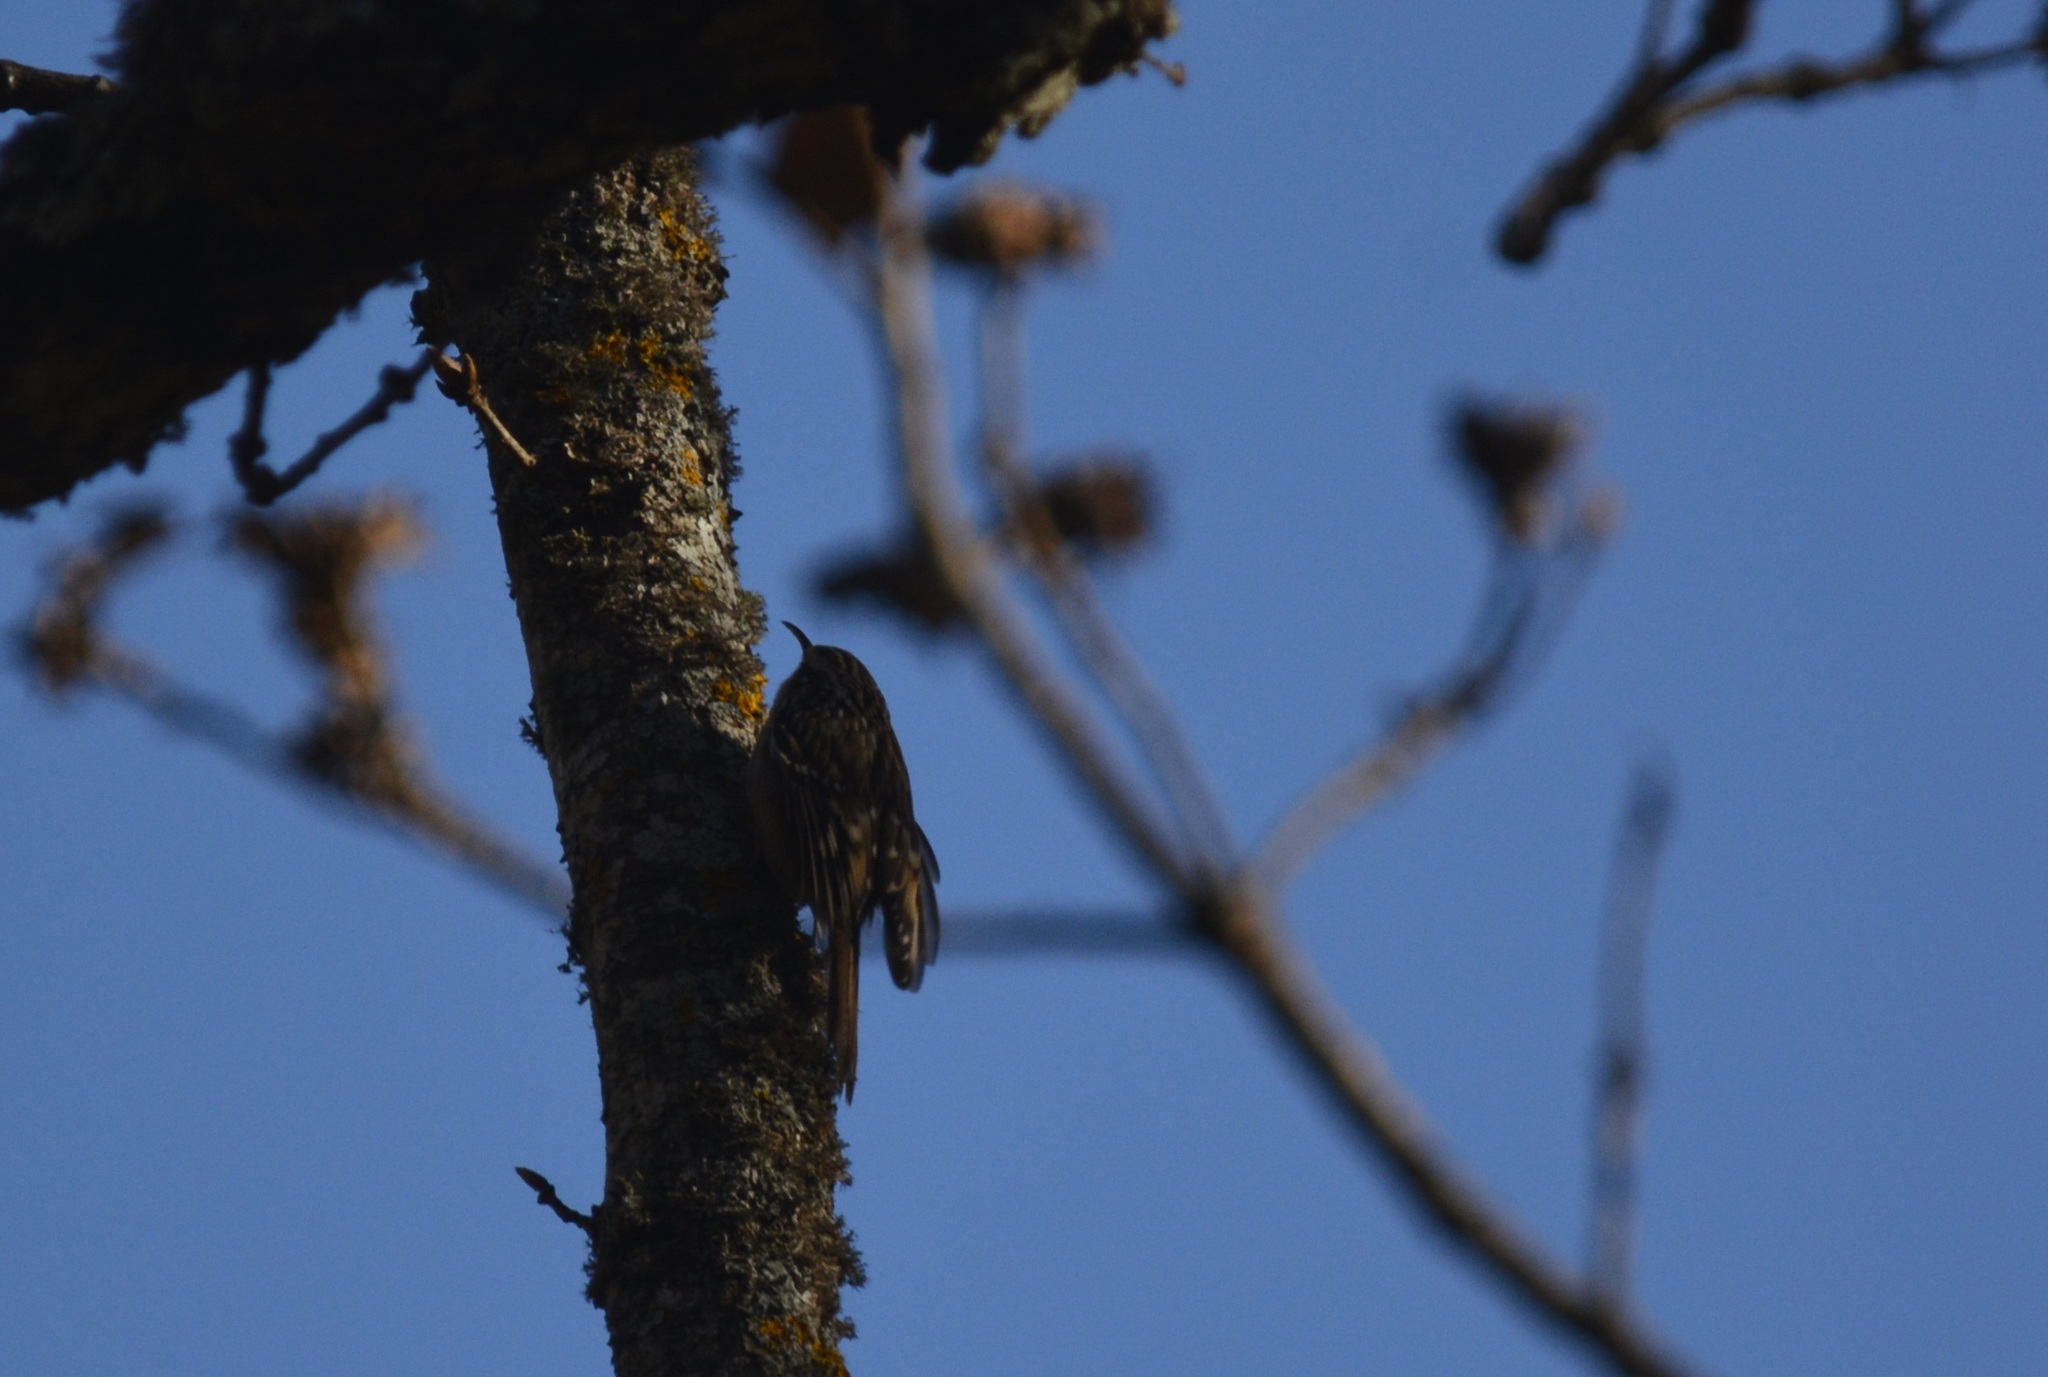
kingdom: Animalia
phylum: Chordata
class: Aves
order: Passeriformes
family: Certhiidae
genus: Certhia
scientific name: Certhia brachydactyla
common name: Short-toed treecreeper
